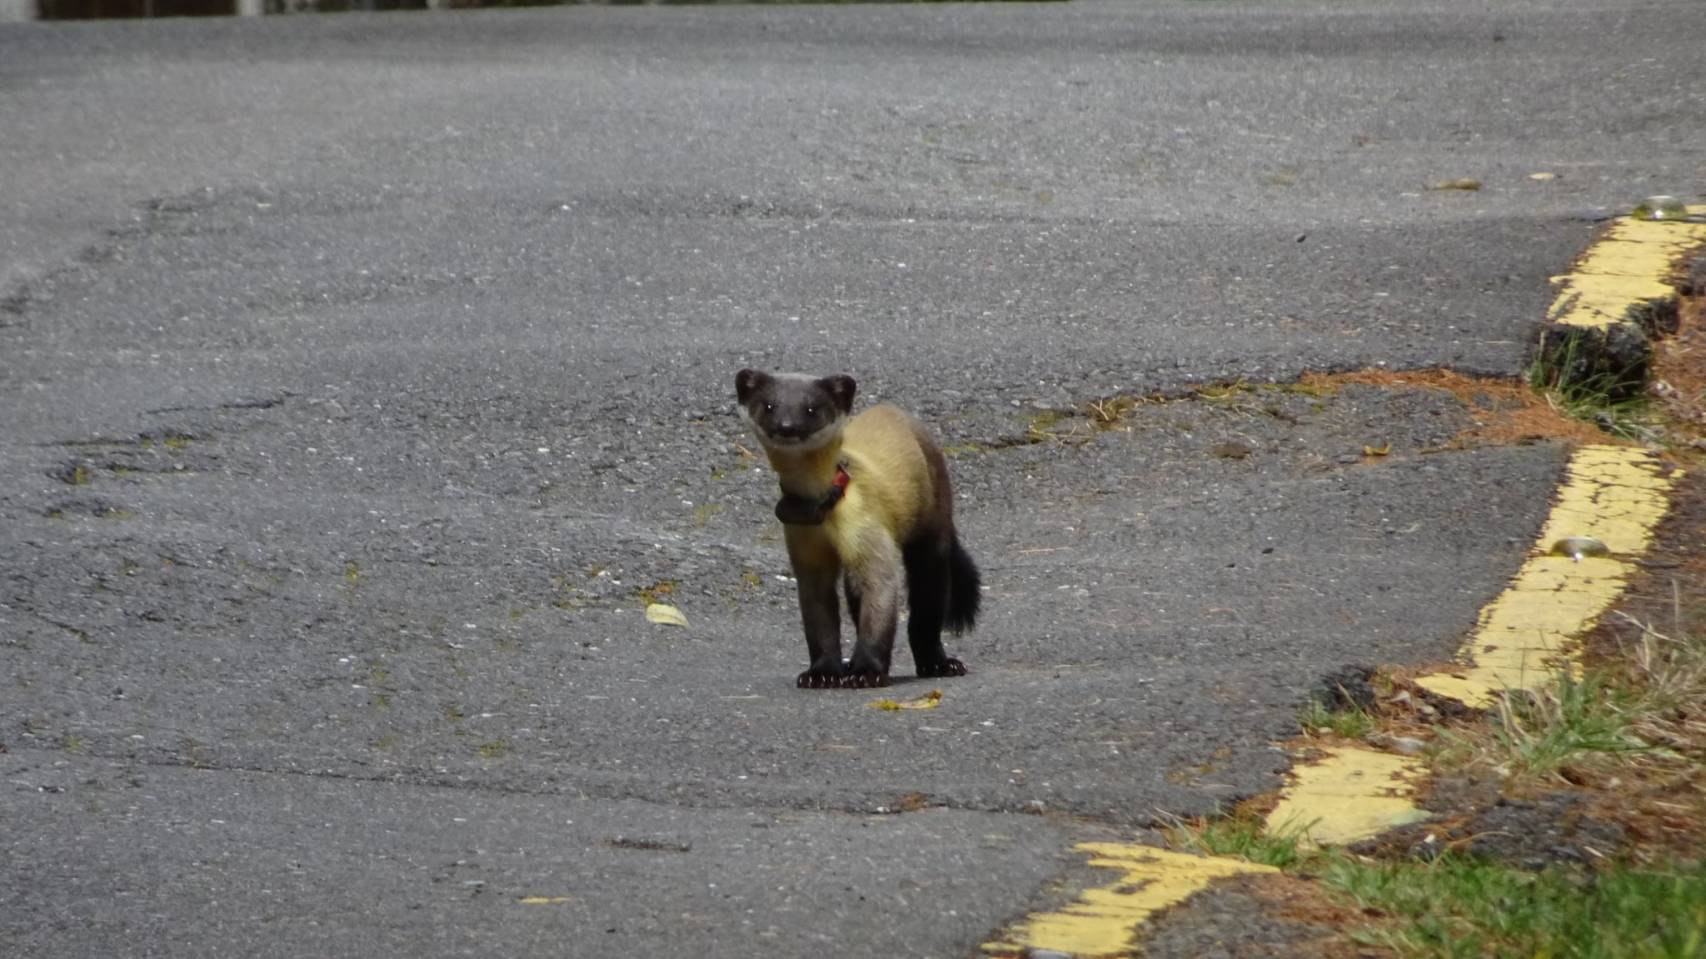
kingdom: Animalia
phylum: Chordata
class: Mammalia
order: Carnivora
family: Mustelidae
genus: Martes
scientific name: Martes flavigula
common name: Yellow-throated marten
